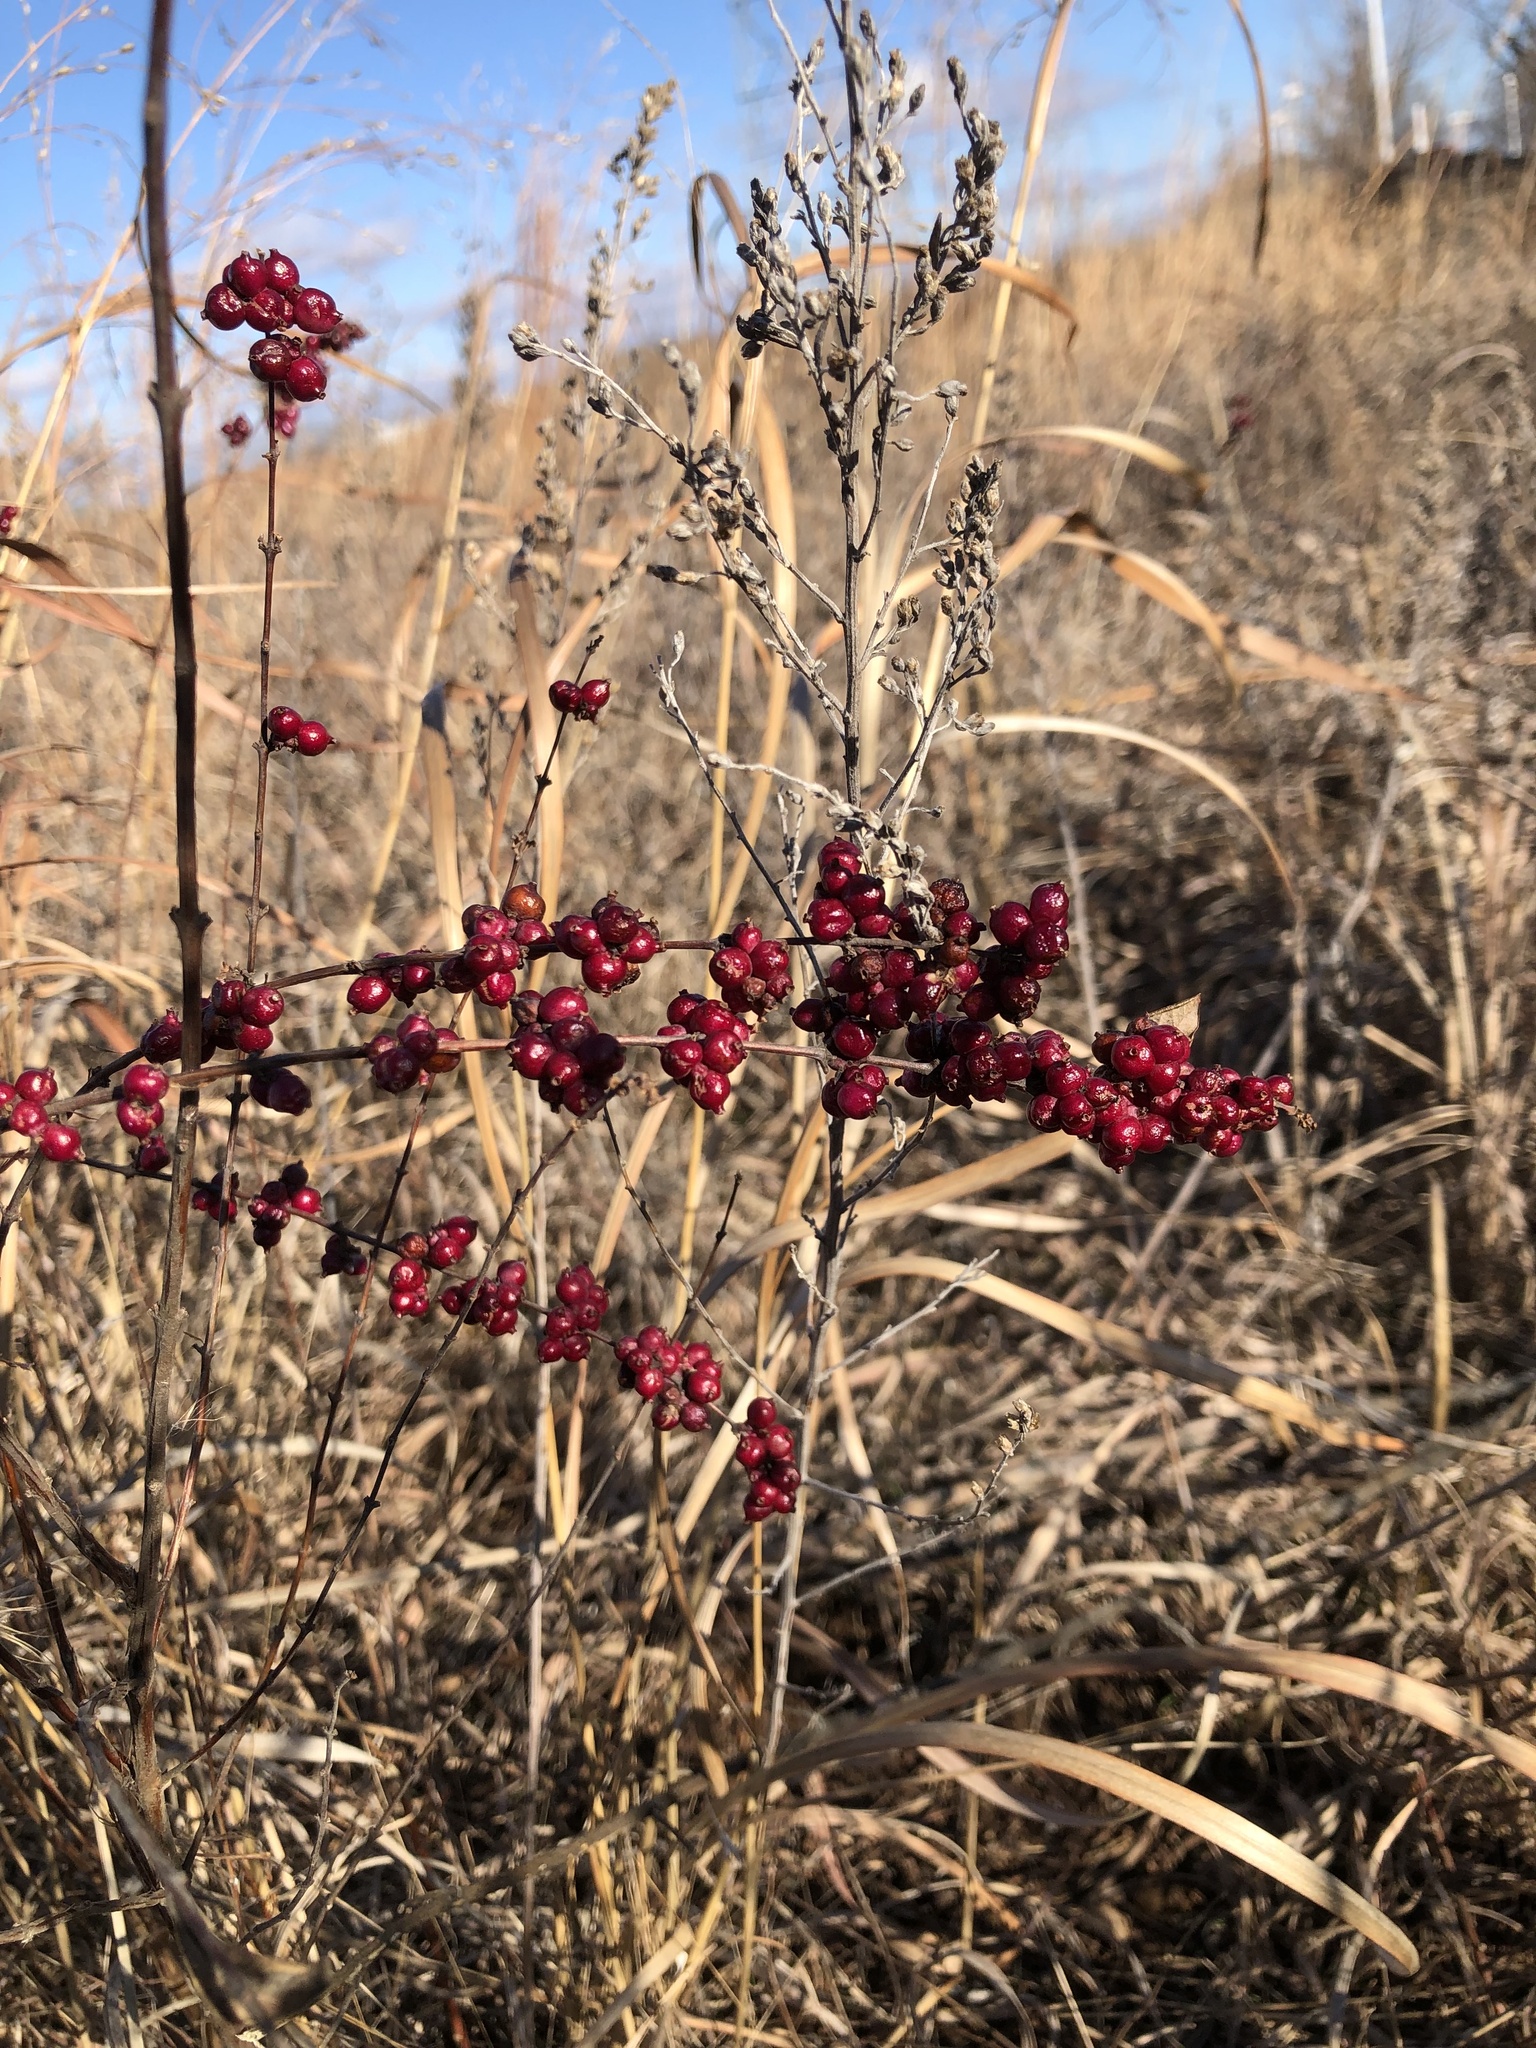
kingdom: Plantae
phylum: Tracheophyta
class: Magnoliopsida
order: Dipsacales
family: Caprifoliaceae
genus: Symphoricarpos
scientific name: Symphoricarpos orbiculatus
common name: Coralberry
